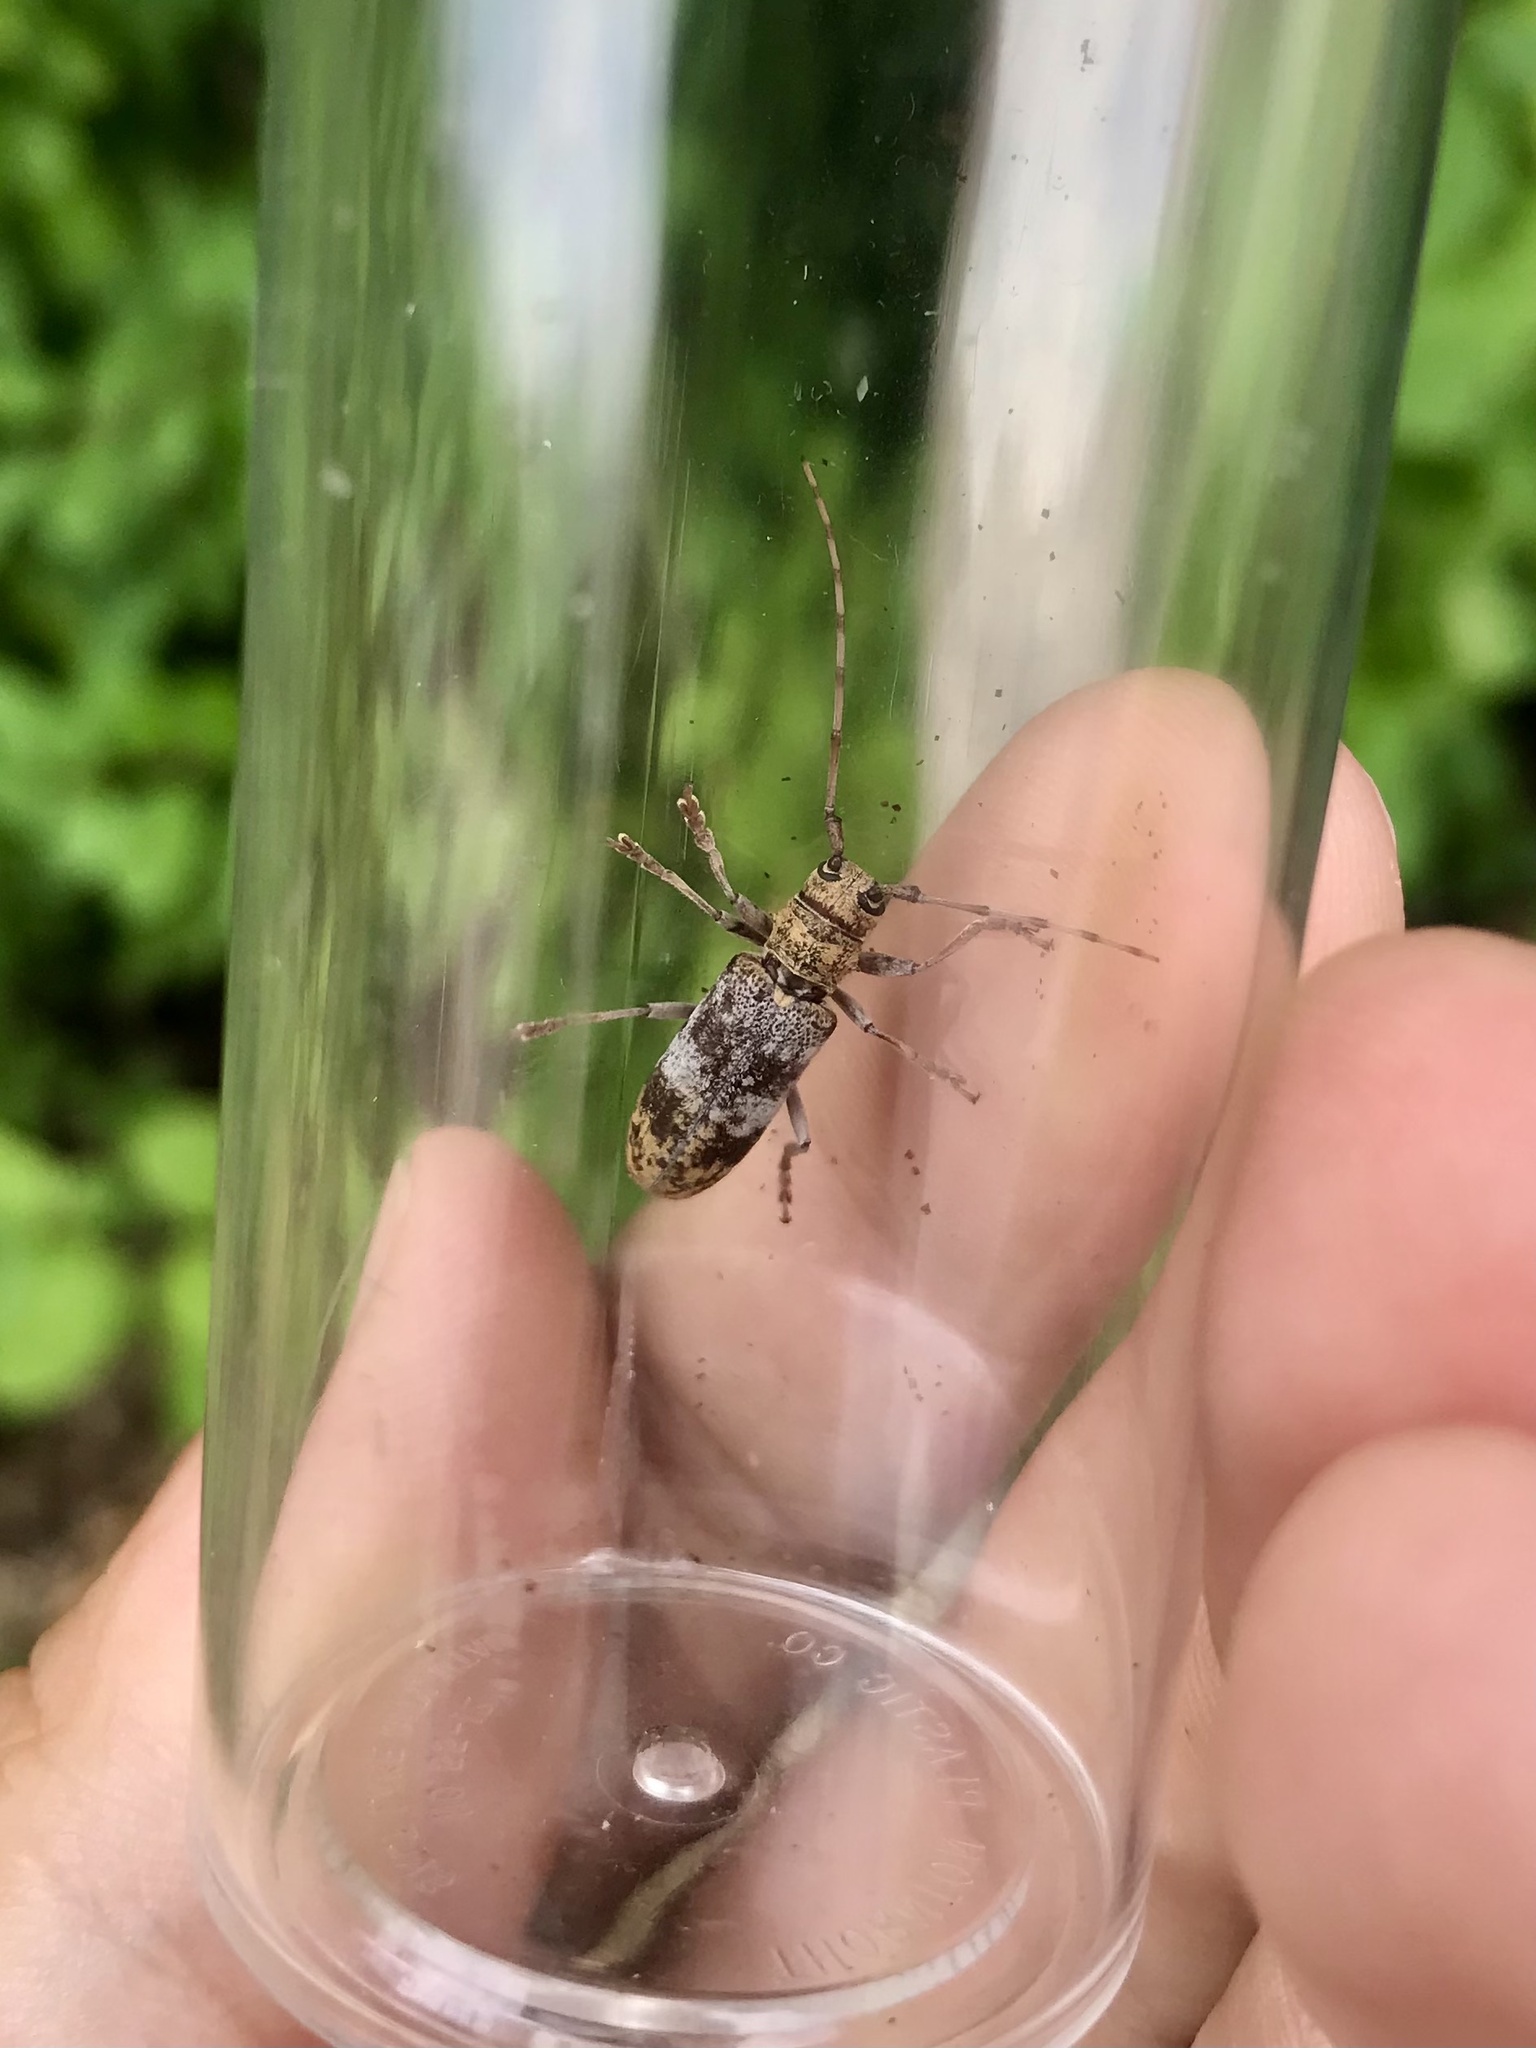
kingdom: Animalia
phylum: Arthropoda
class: Insecta
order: Coleoptera
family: Cerambycidae
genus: Goes
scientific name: Goes debilis
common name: Oak branch borer
